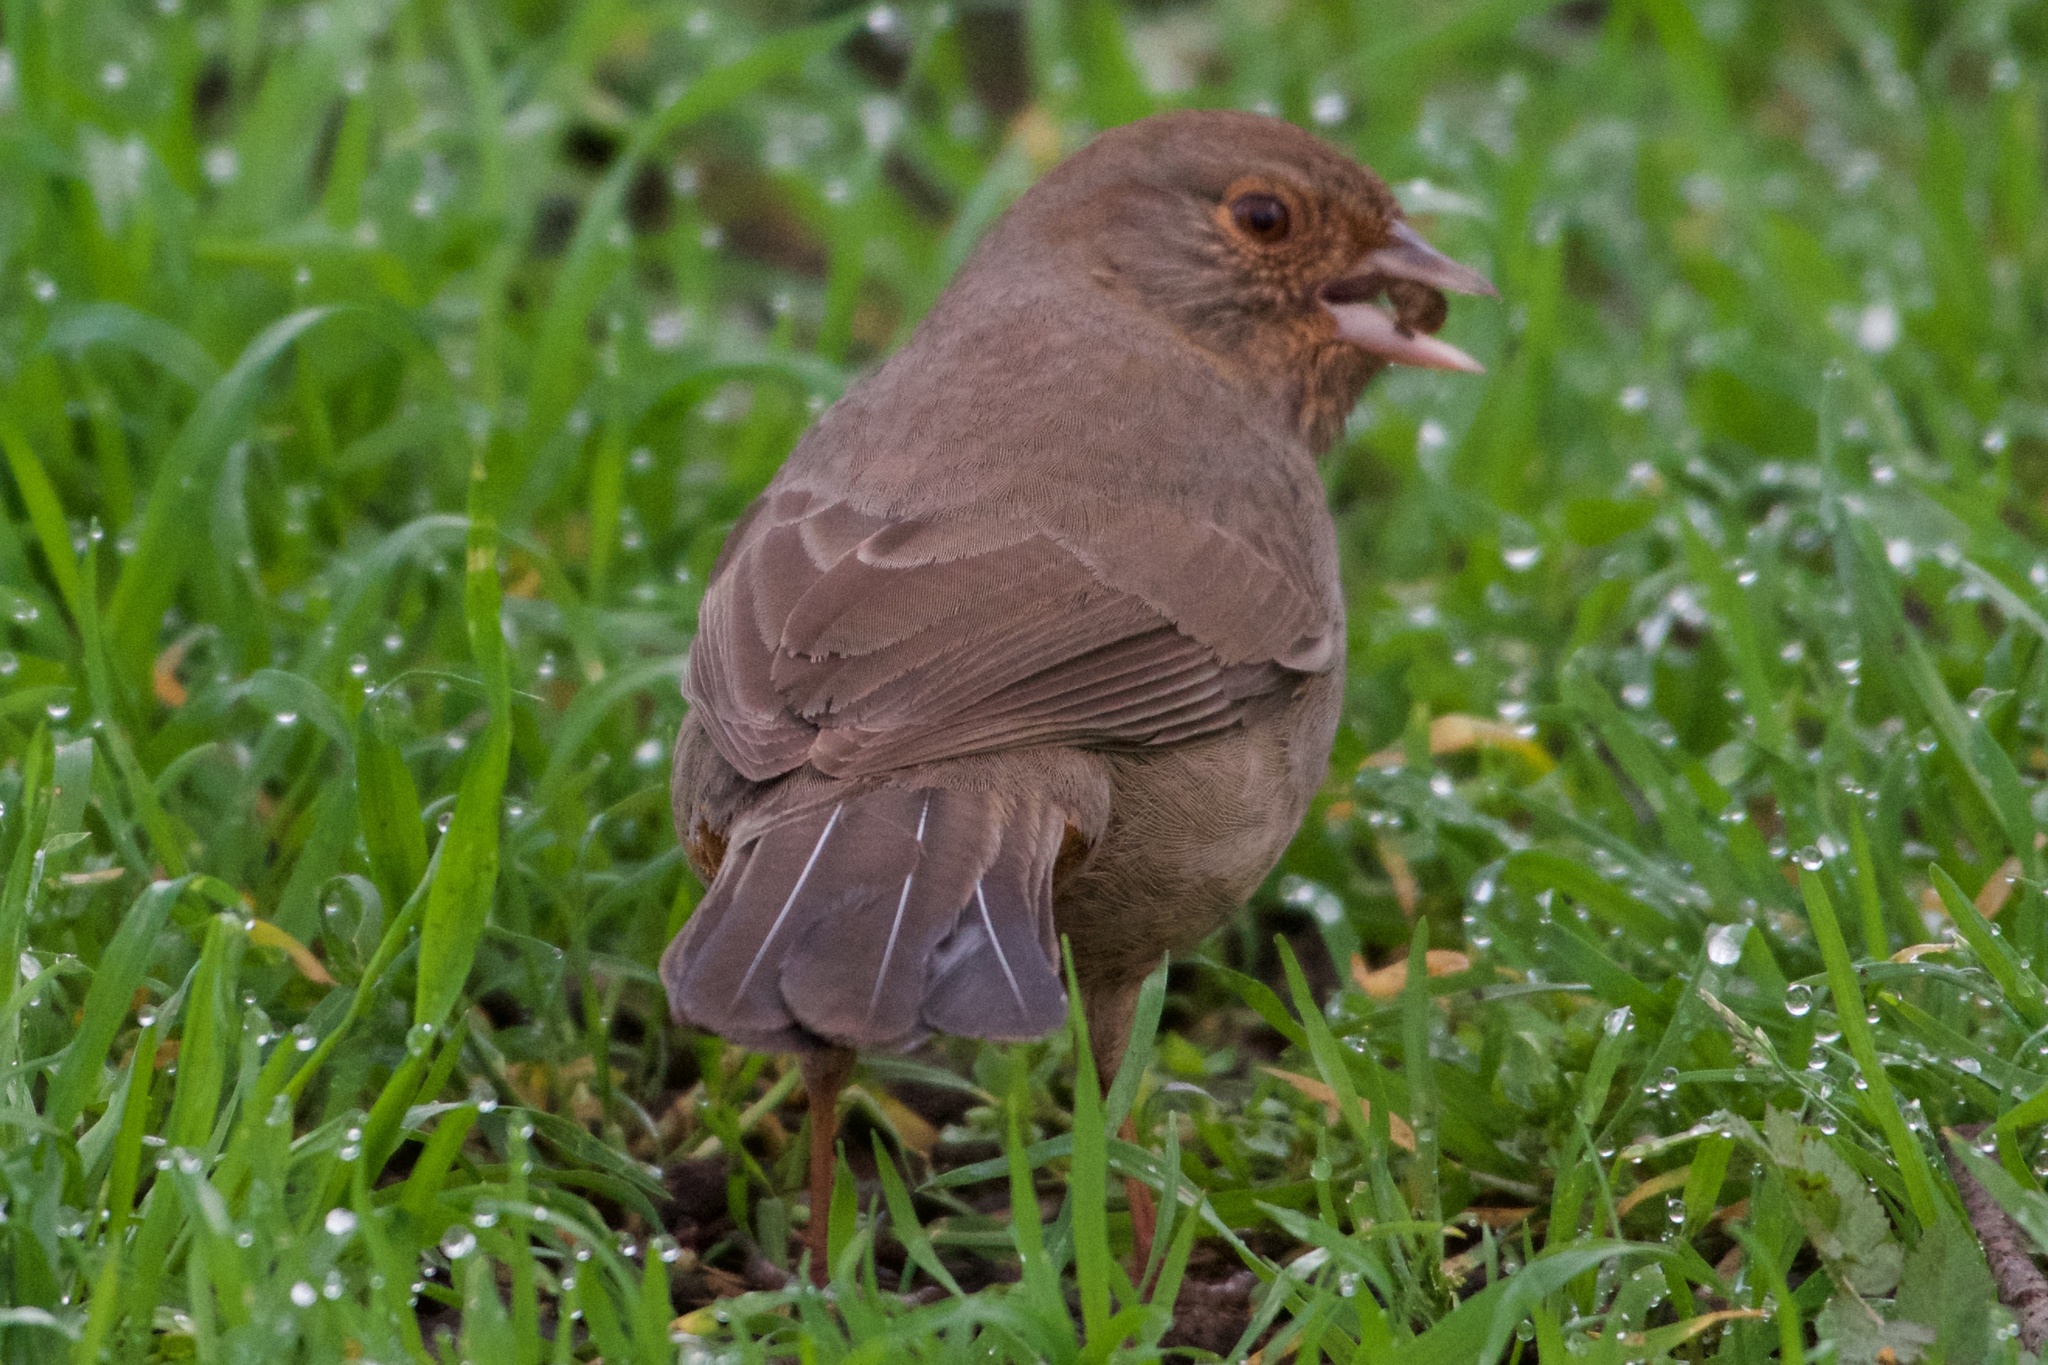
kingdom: Animalia
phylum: Chordata
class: Aves
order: Passeriformes
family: Passerellidae
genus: Melozone
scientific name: Melozone crissalis
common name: California towhee
